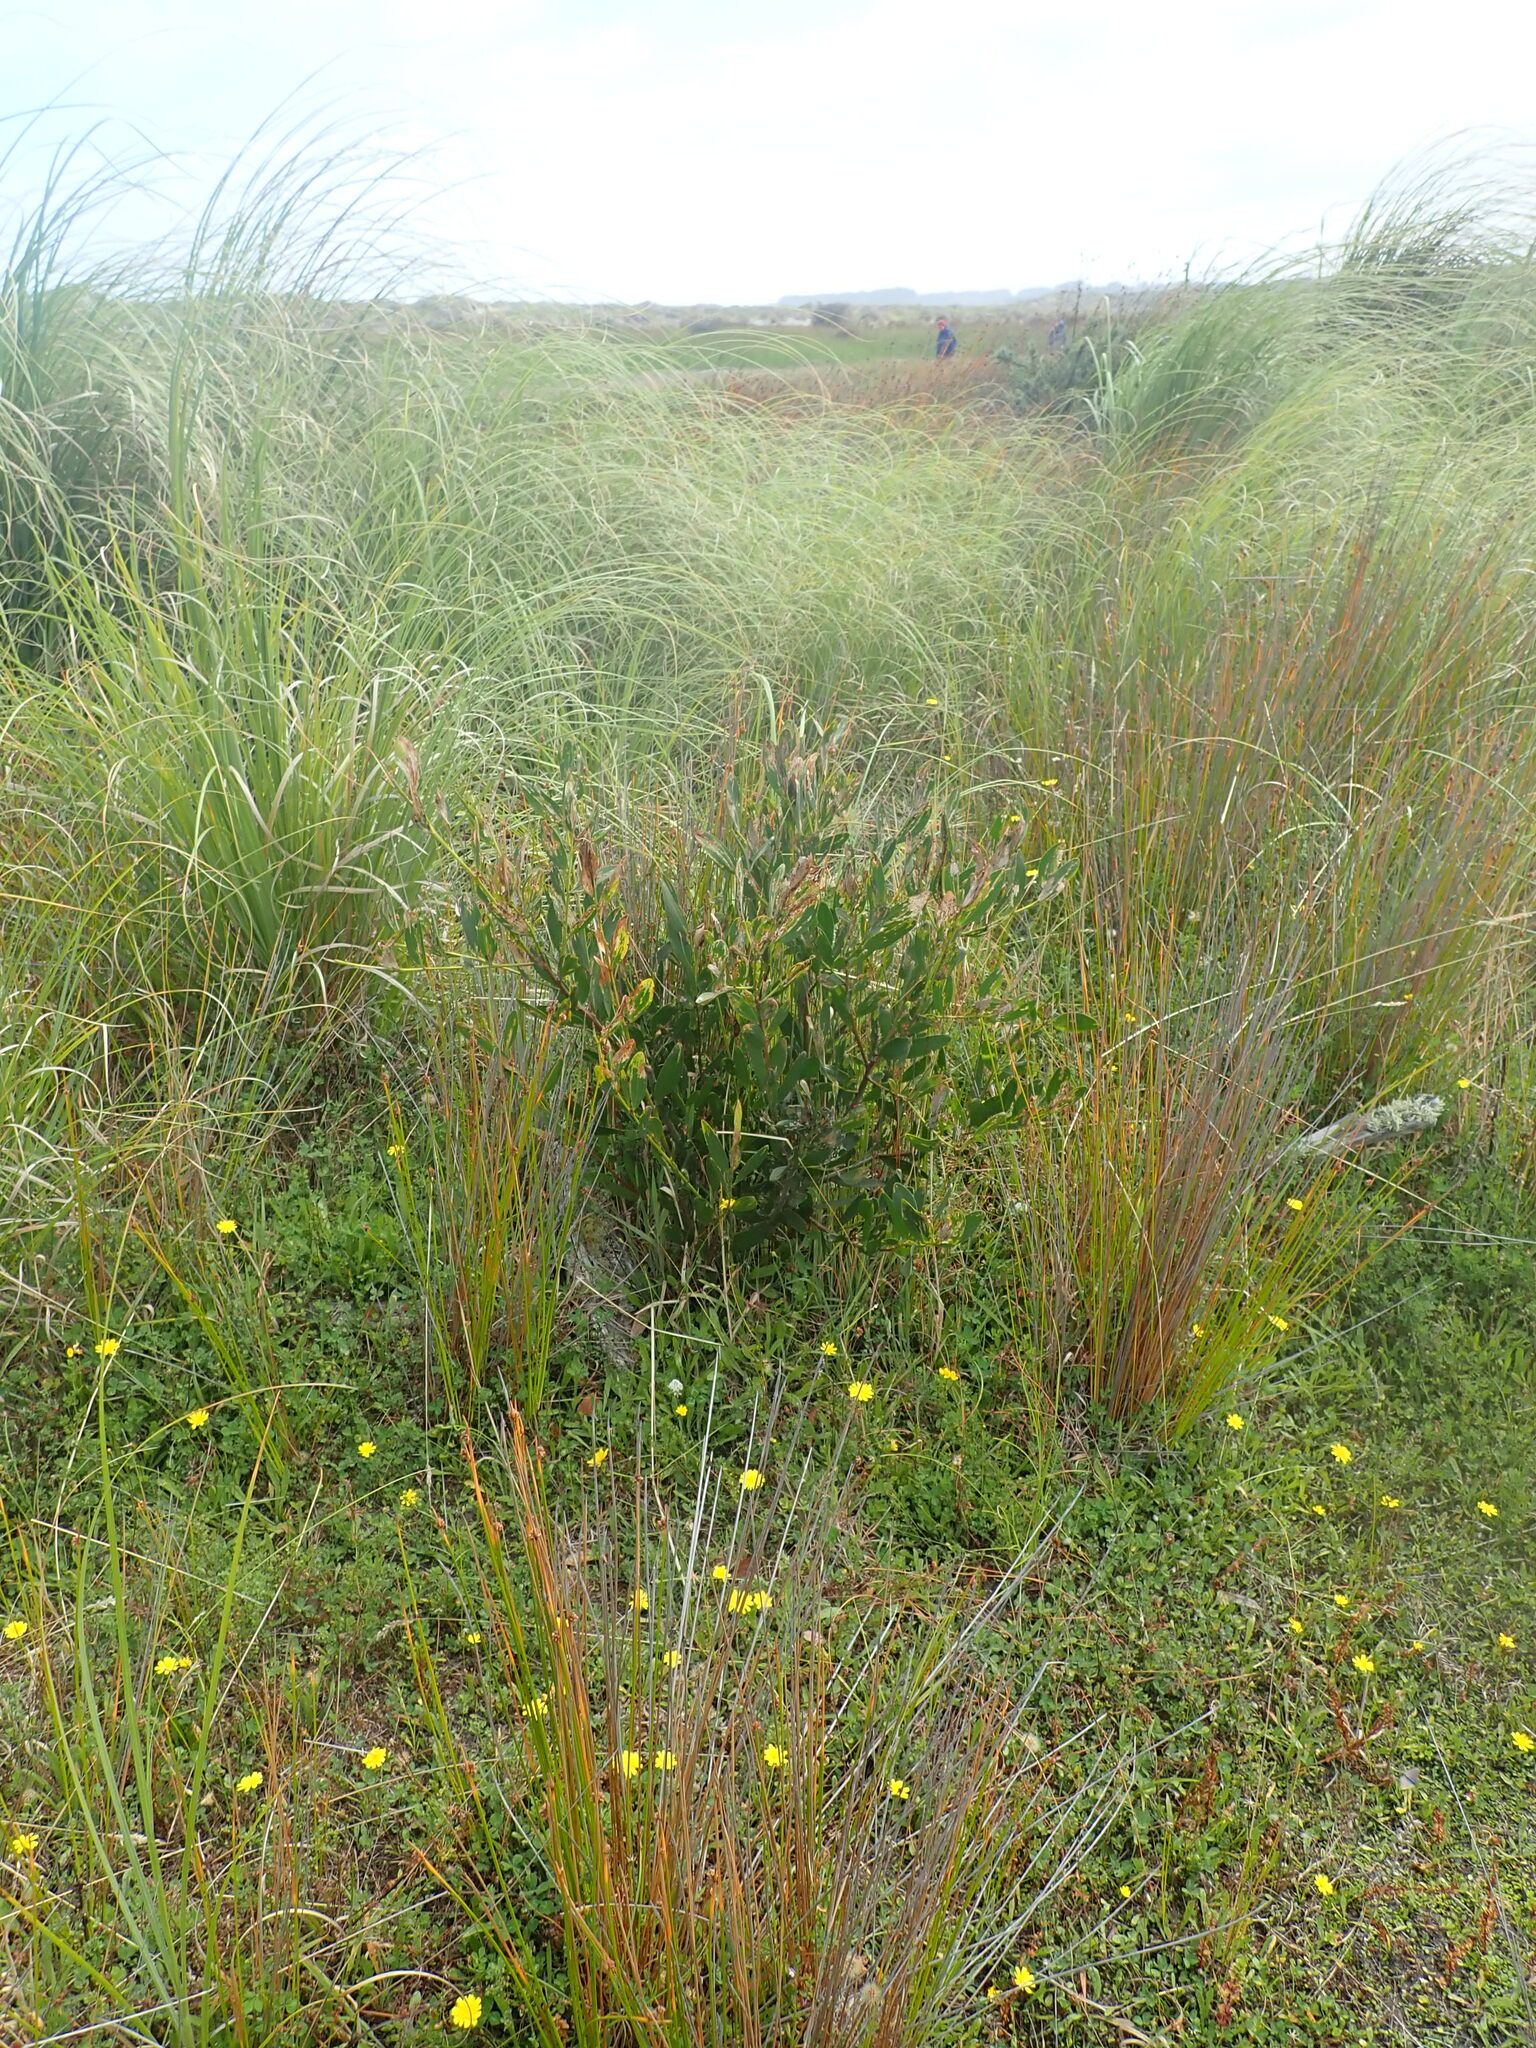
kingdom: Plantae
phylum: Tracheophyta
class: Magnoliopsida
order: Fabales
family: Fabaceae
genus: Acacia
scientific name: Acacia longifolia
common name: Sydney golden wattle
